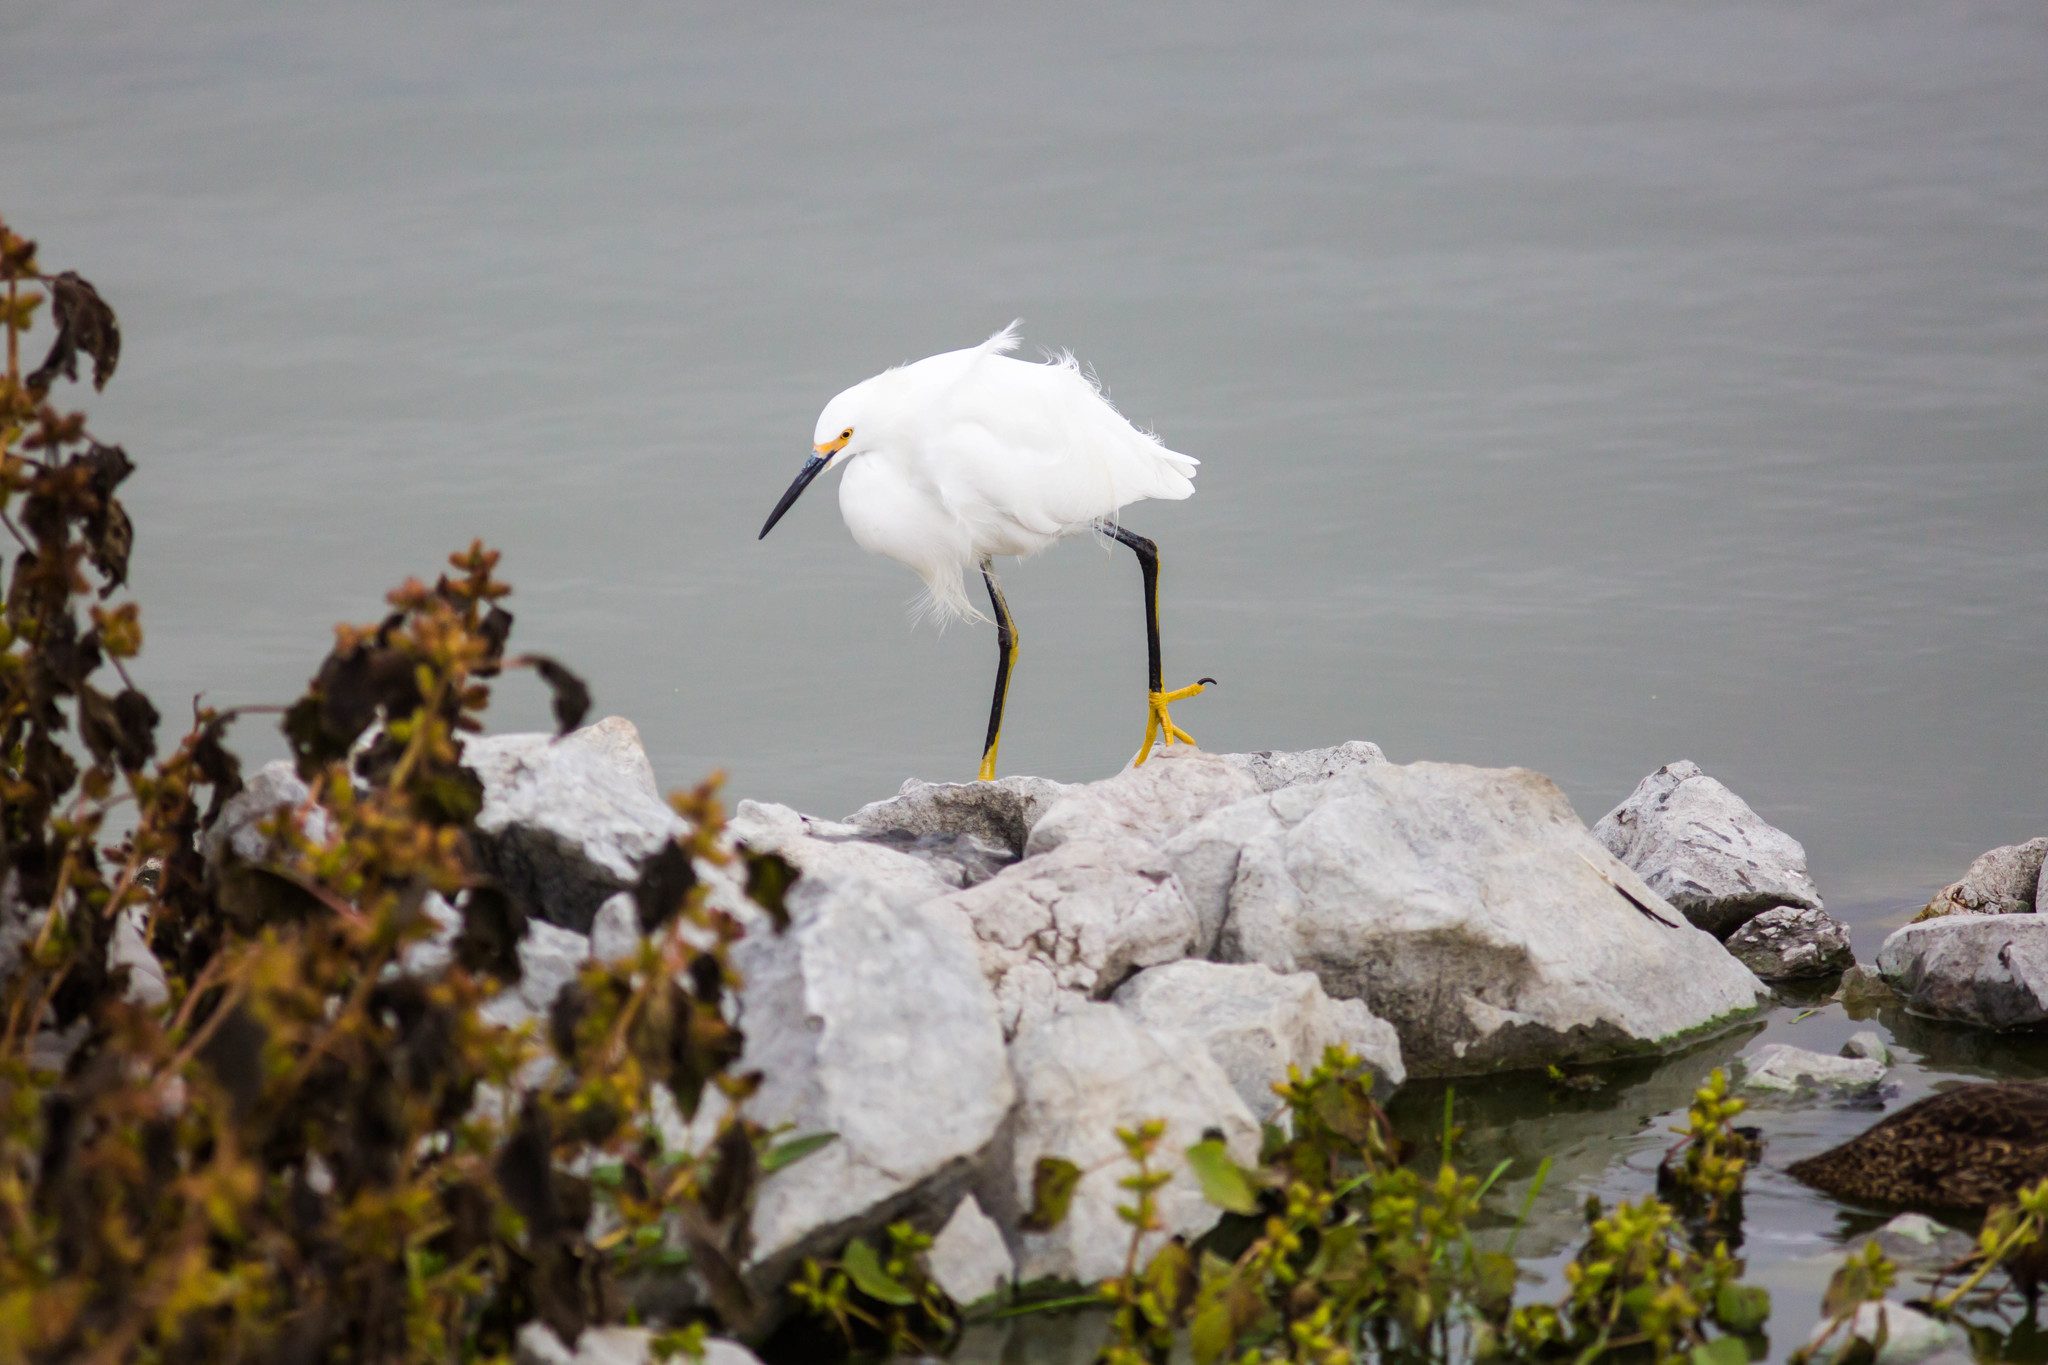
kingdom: Animalia
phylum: Chordata
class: Aves
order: Pelecaniformes
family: Ardeidae
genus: Egretta
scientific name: Egretta thula
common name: Snowy egret
